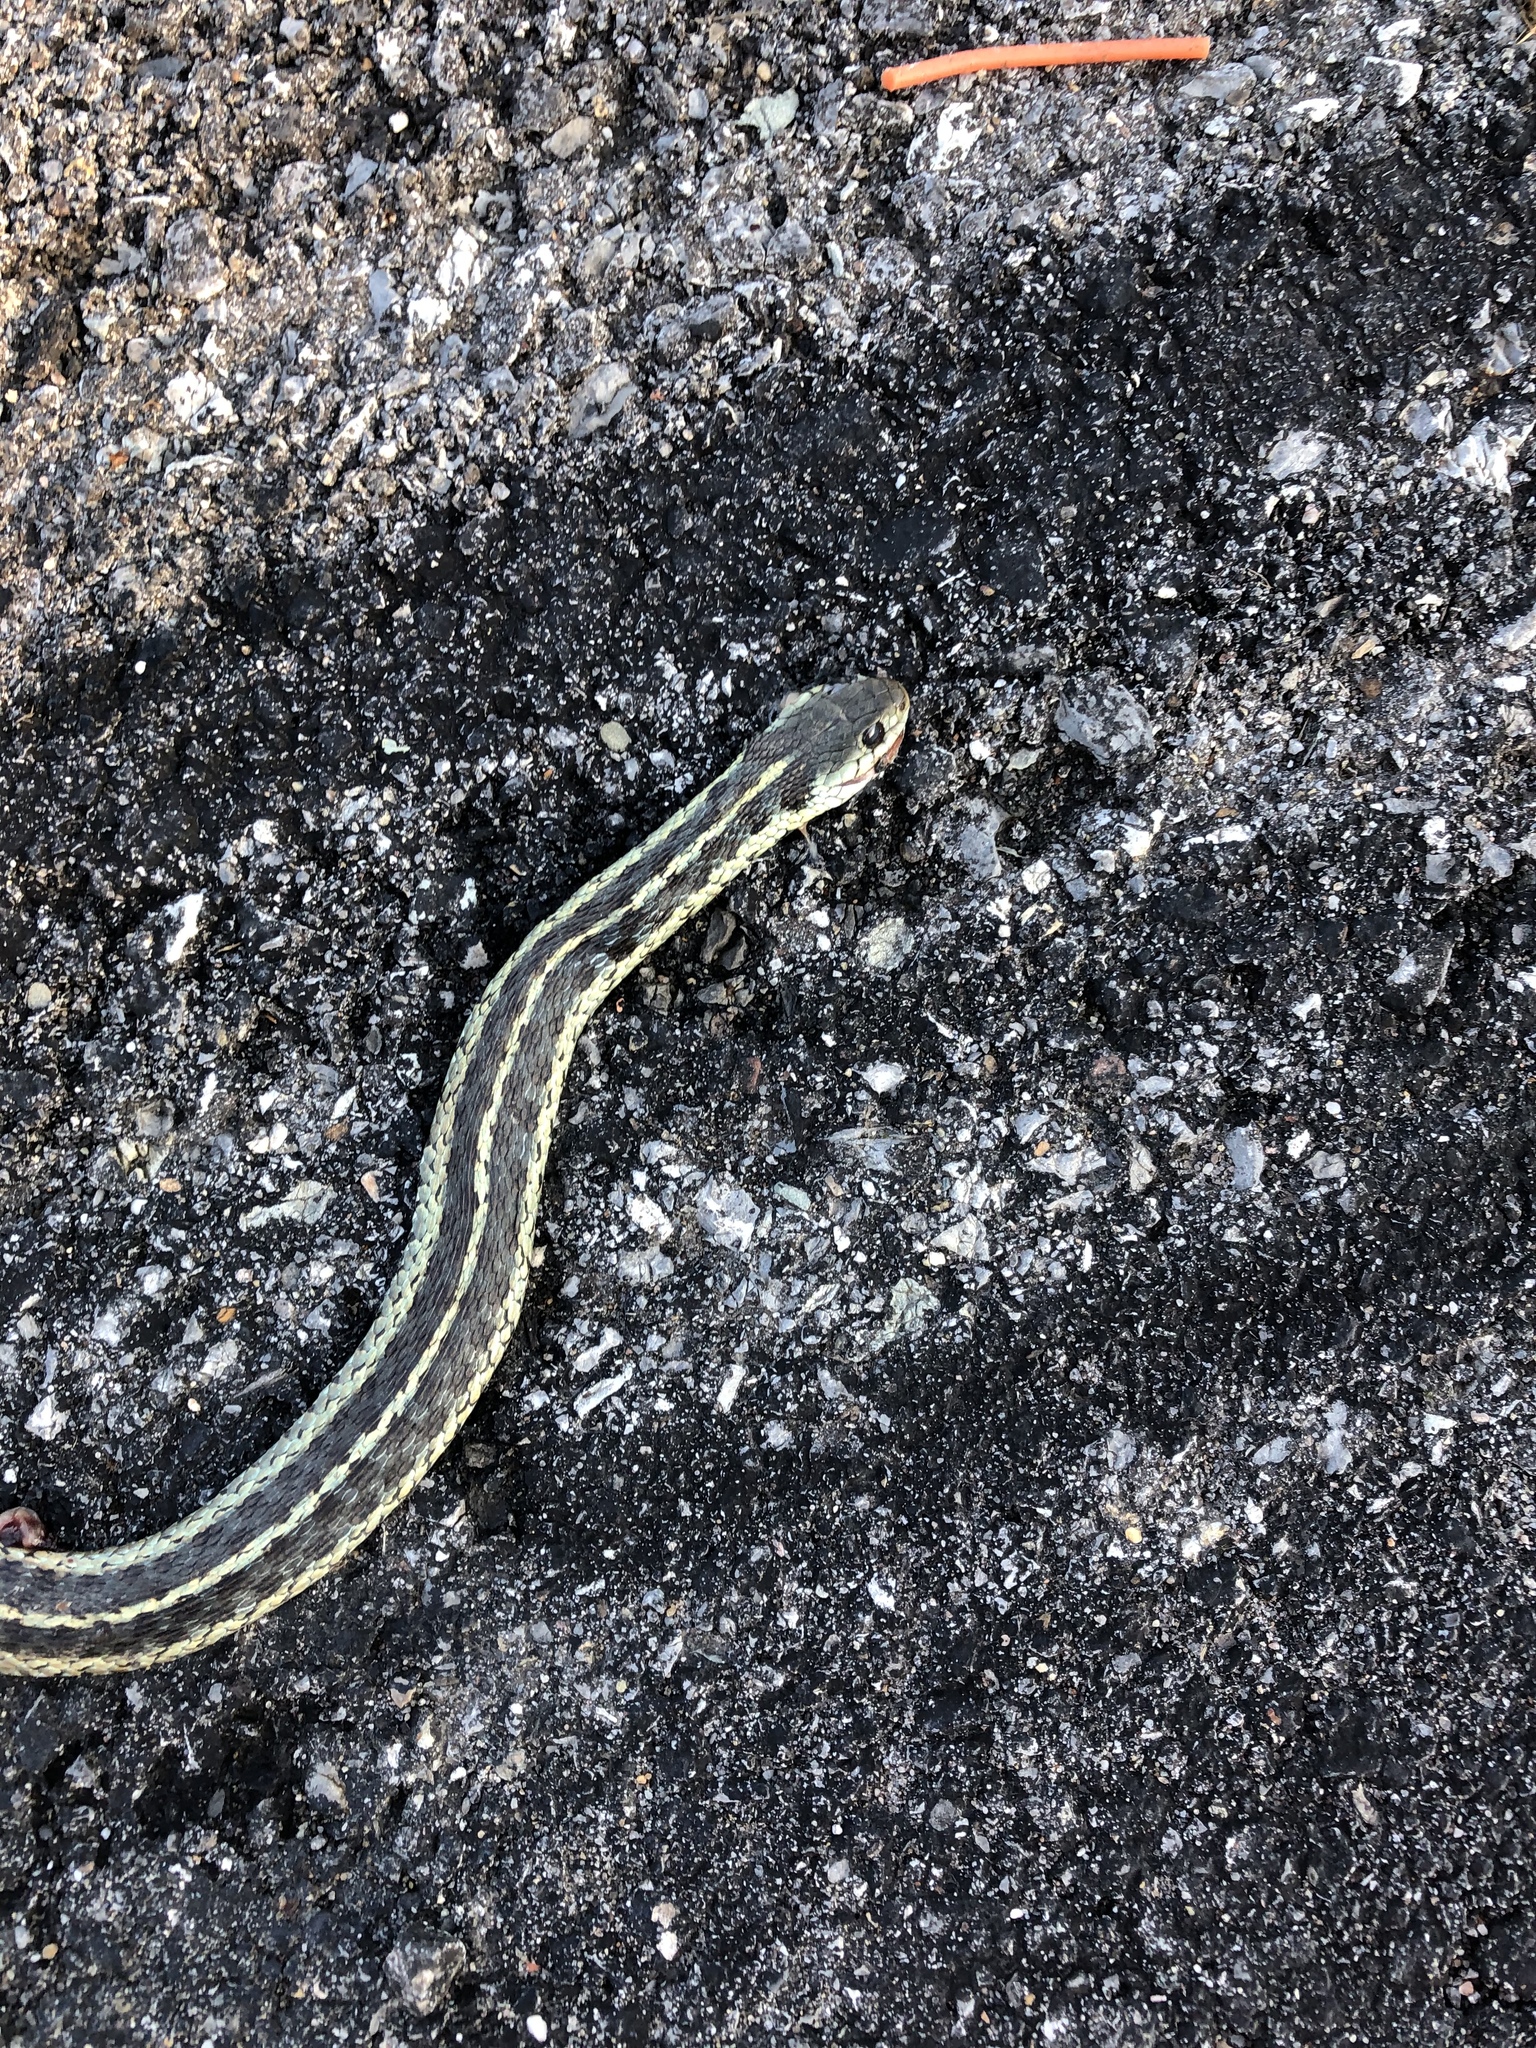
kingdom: Animalia
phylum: Chordata
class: Squamata
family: Colubridae
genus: Thamnophis
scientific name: Thamnophis sirtalis
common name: Common garter snake
